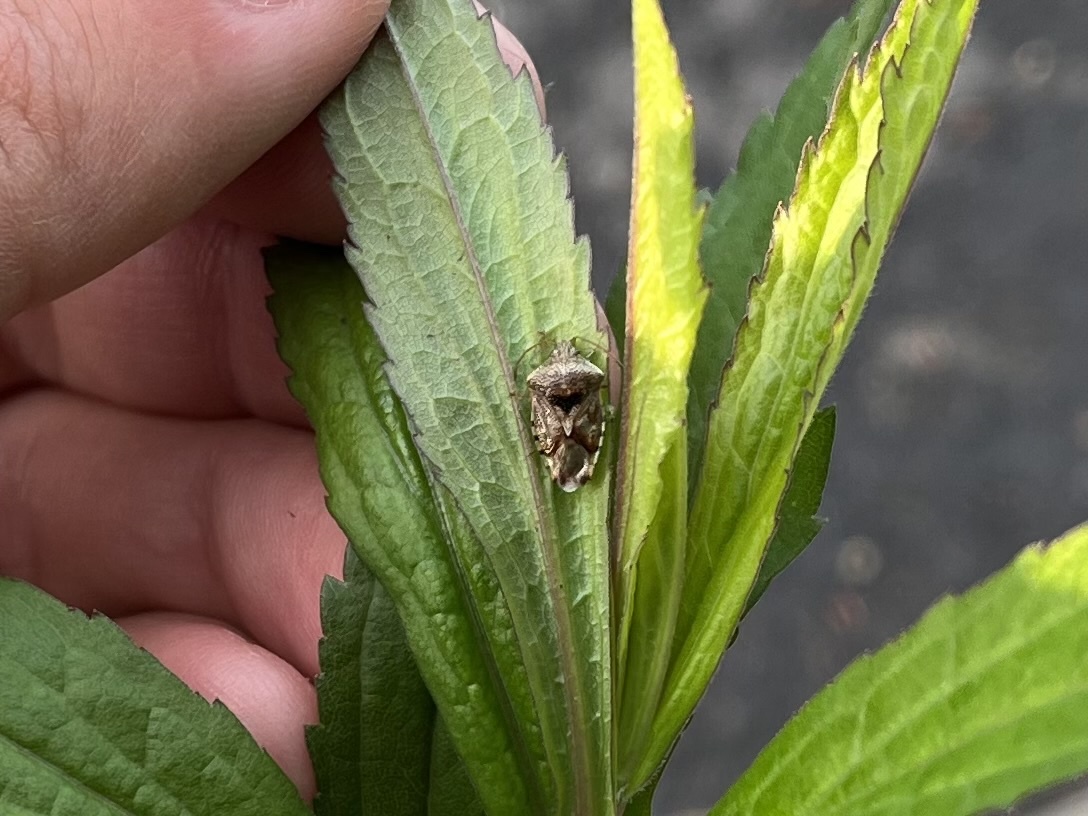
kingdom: Animalia
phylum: Arthropoda
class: Insecta
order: Hemiptera
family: Acanthosomatidae
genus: Elasmucha
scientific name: Elasmucha grisea
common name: Parent bug
